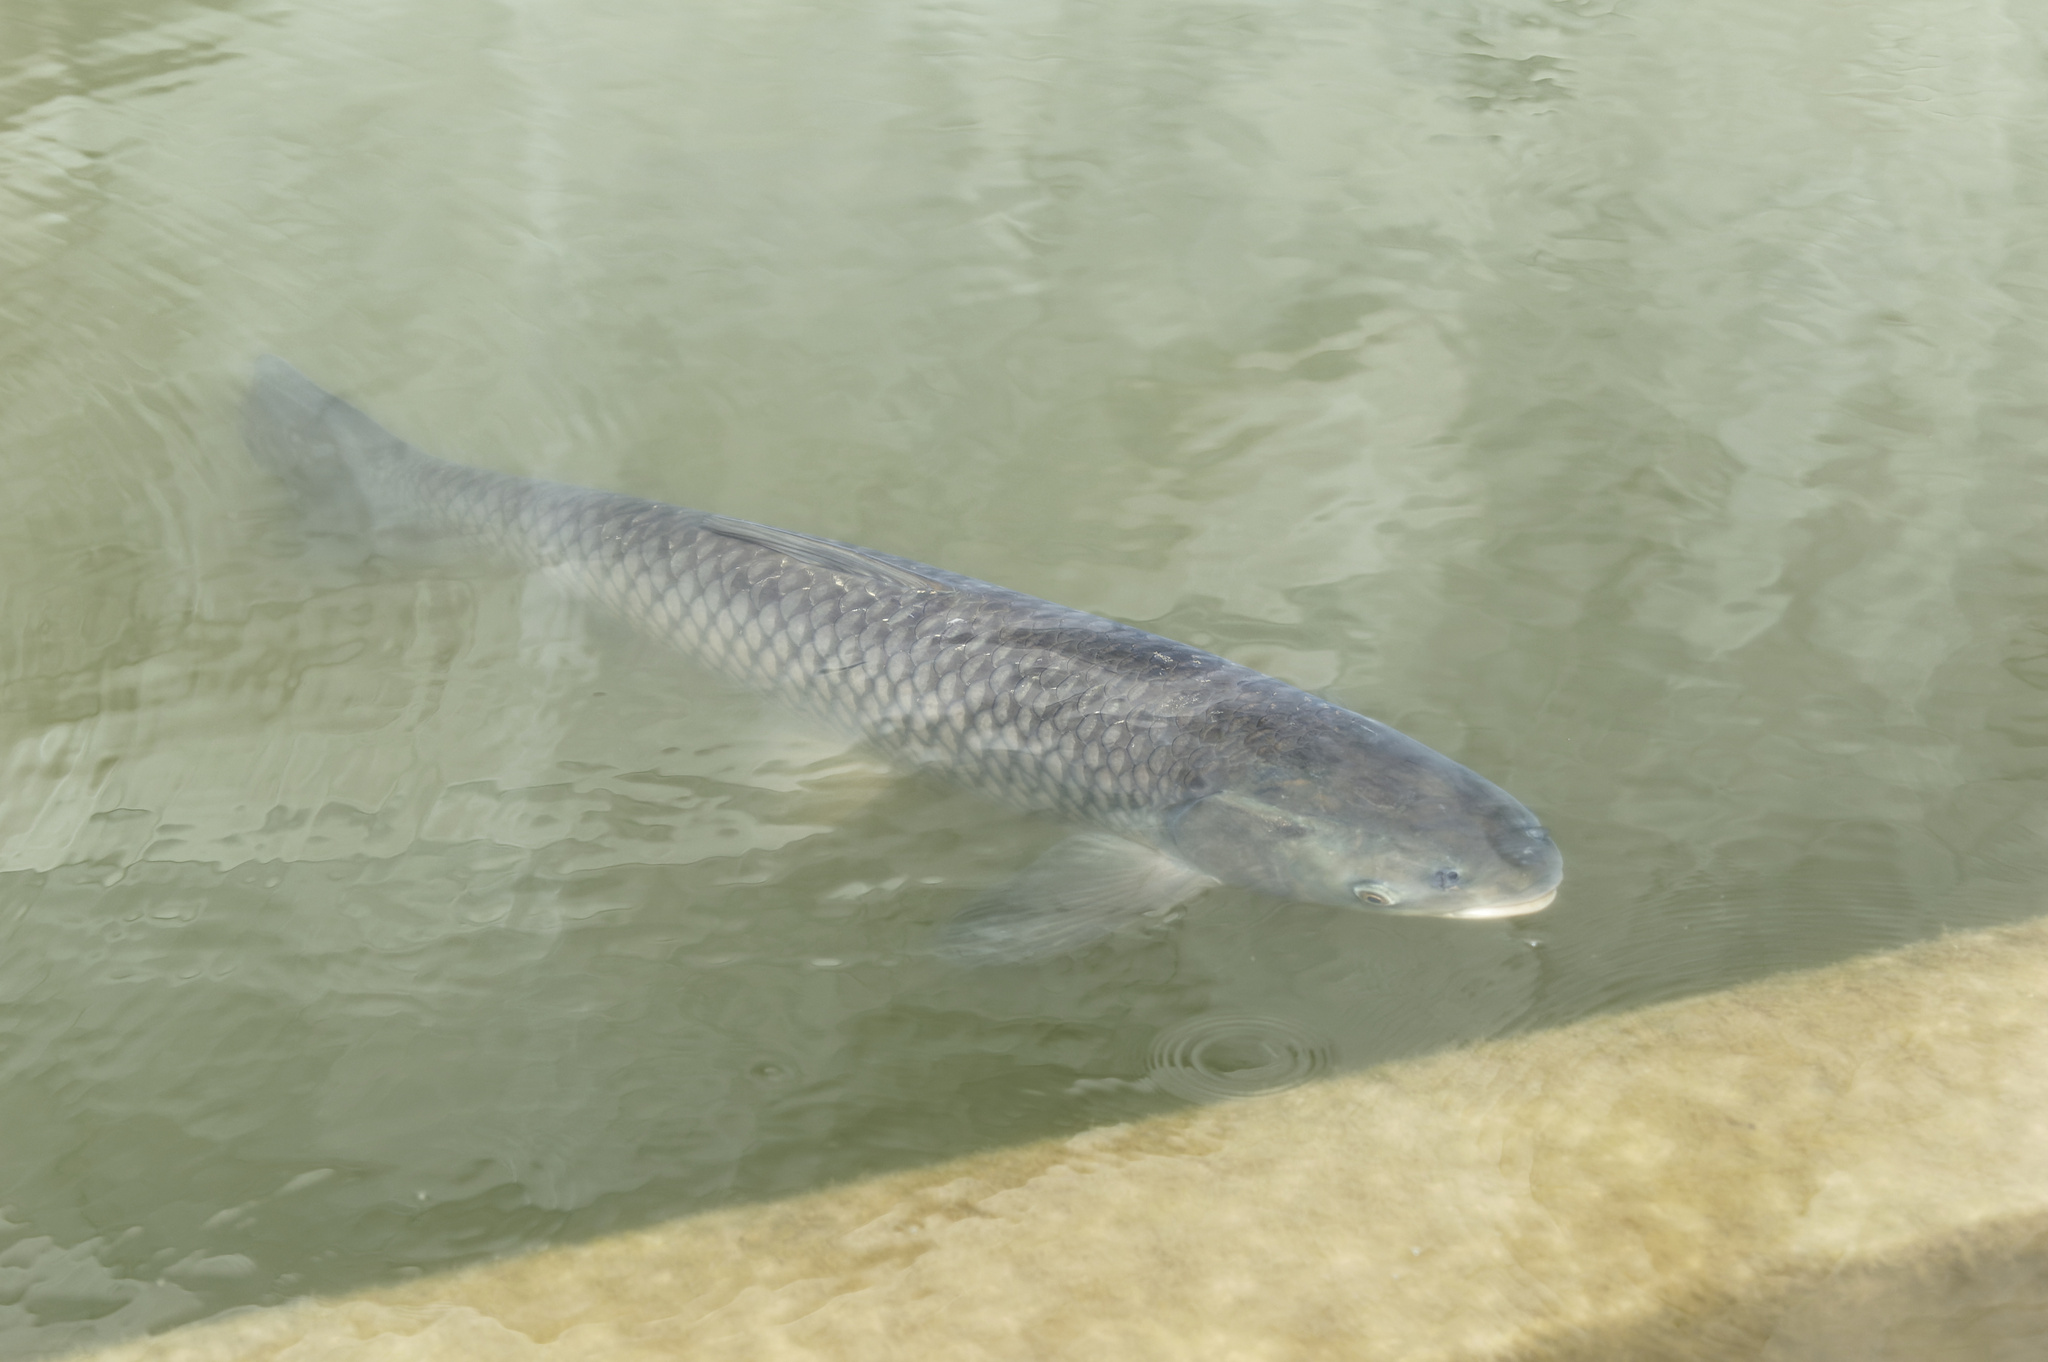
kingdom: Animalia
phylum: Chordata
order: Cypriniformes
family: Cyprinidae
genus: Ctenopharyngodon
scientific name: Ctenopharyngodon idella
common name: Grass carp
